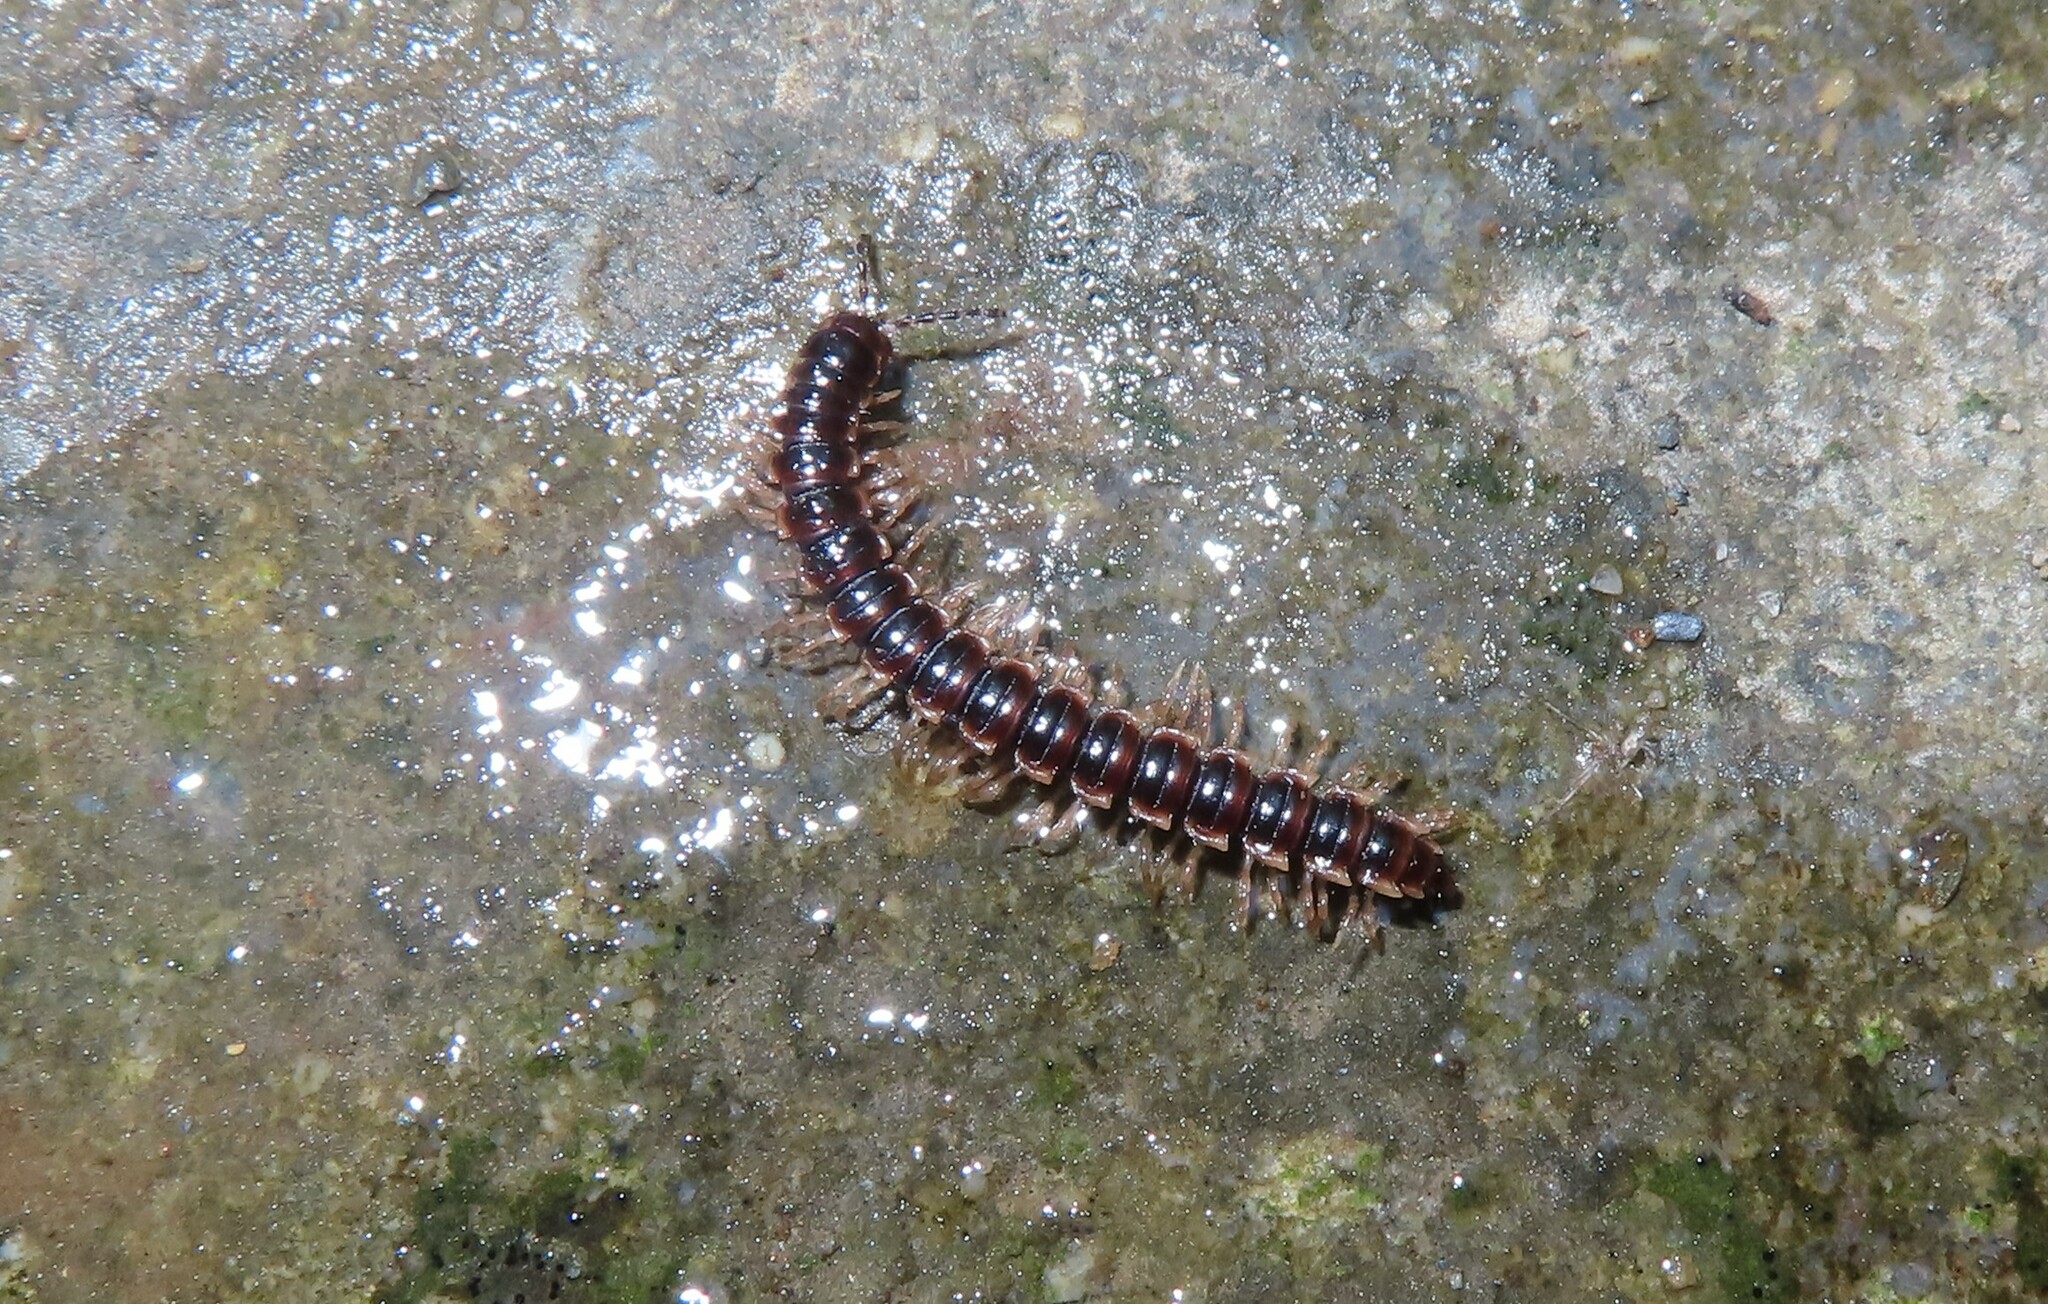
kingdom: Animalia
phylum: Arthropoda
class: Diplopoda
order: Polydesmida
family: Paradoxosomatidae
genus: Oxidus
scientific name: Oxidus gracilis
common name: Greenhouse millipede
